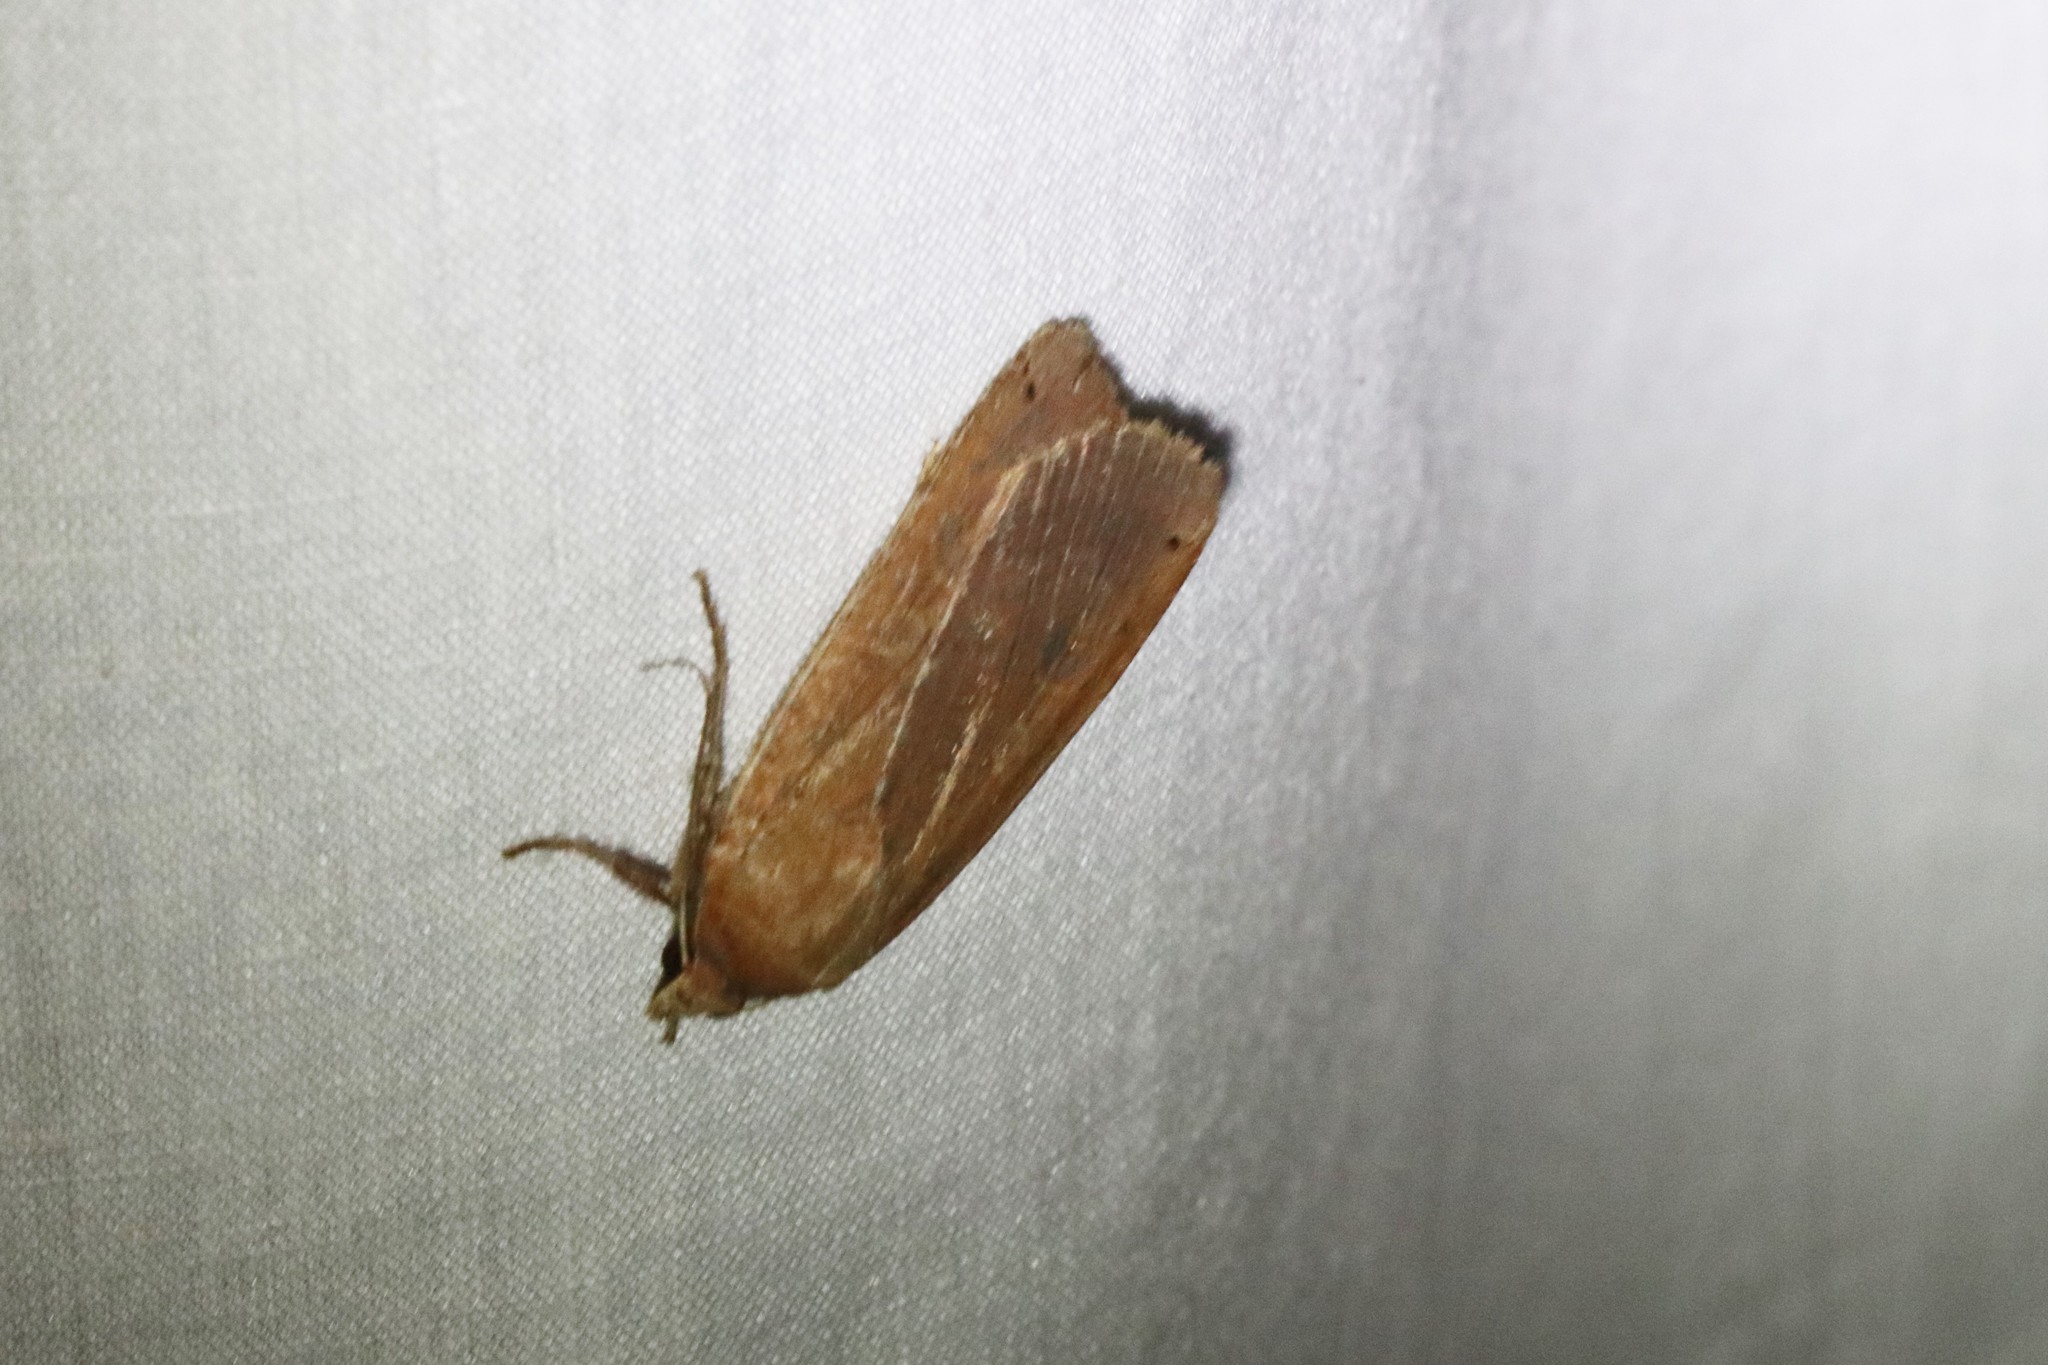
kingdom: Animalia
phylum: Arthropoda
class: Insecta
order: Lepidoptera
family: Noctuidae
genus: Noctua
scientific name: Noctua pronuba
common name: Large yellow underwing
